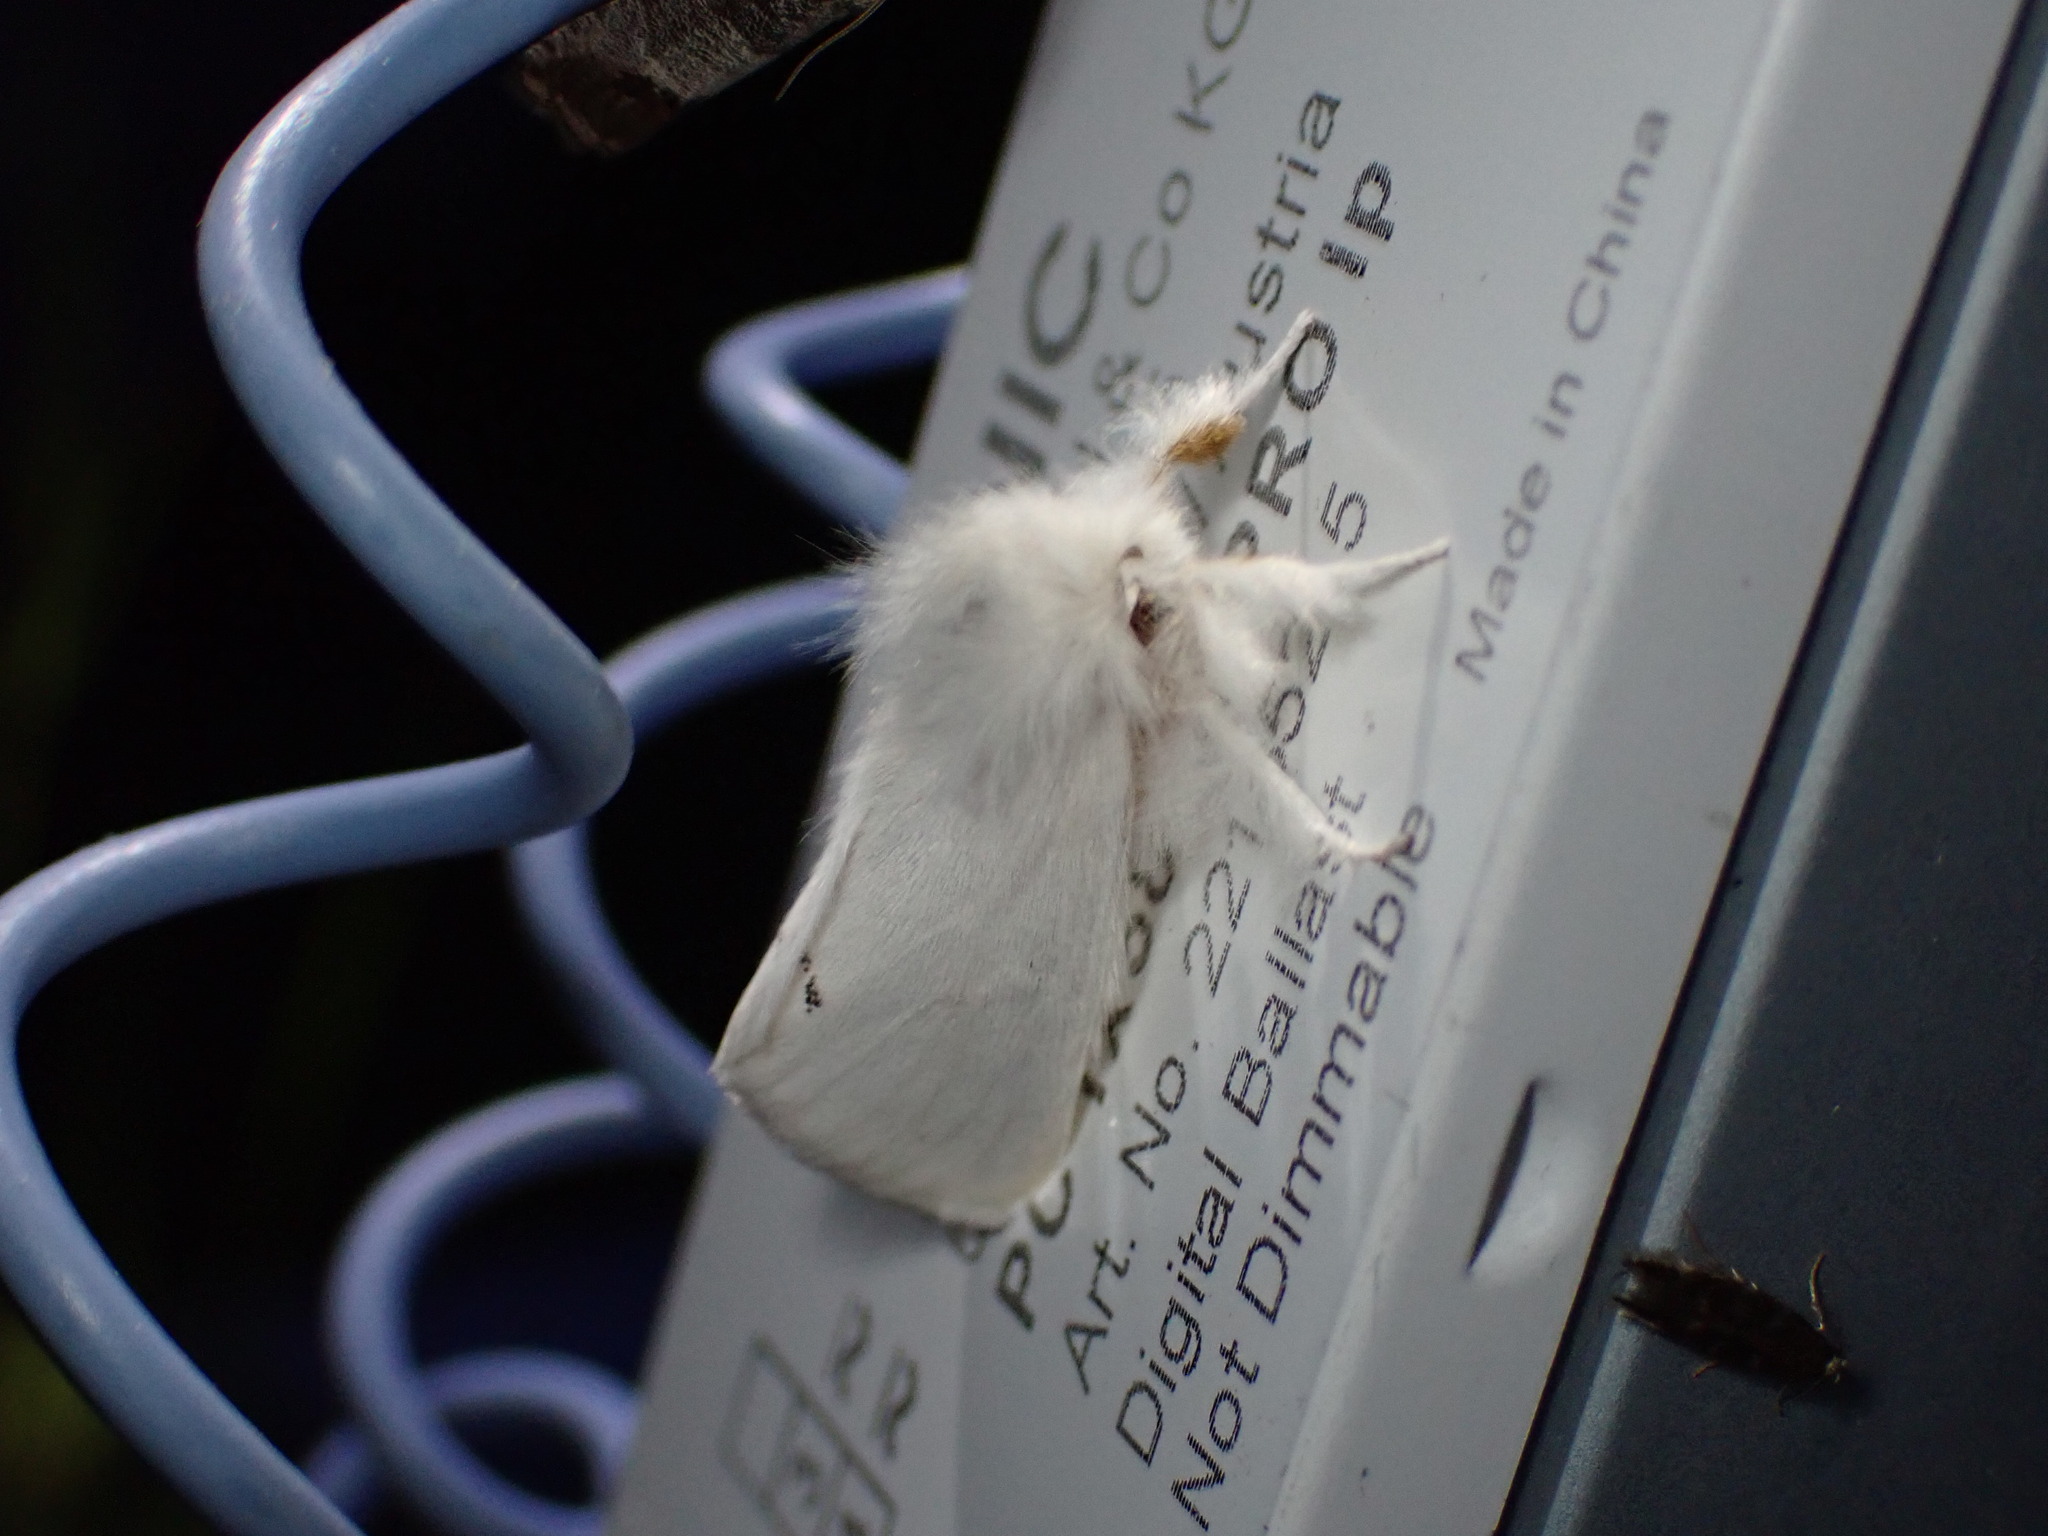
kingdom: Animalia
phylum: Arthropoda
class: Insecta
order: Lepidoptera
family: Erebidae
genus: Euproctis
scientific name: Euproctis chrysorrhoea
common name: Brown-tail
